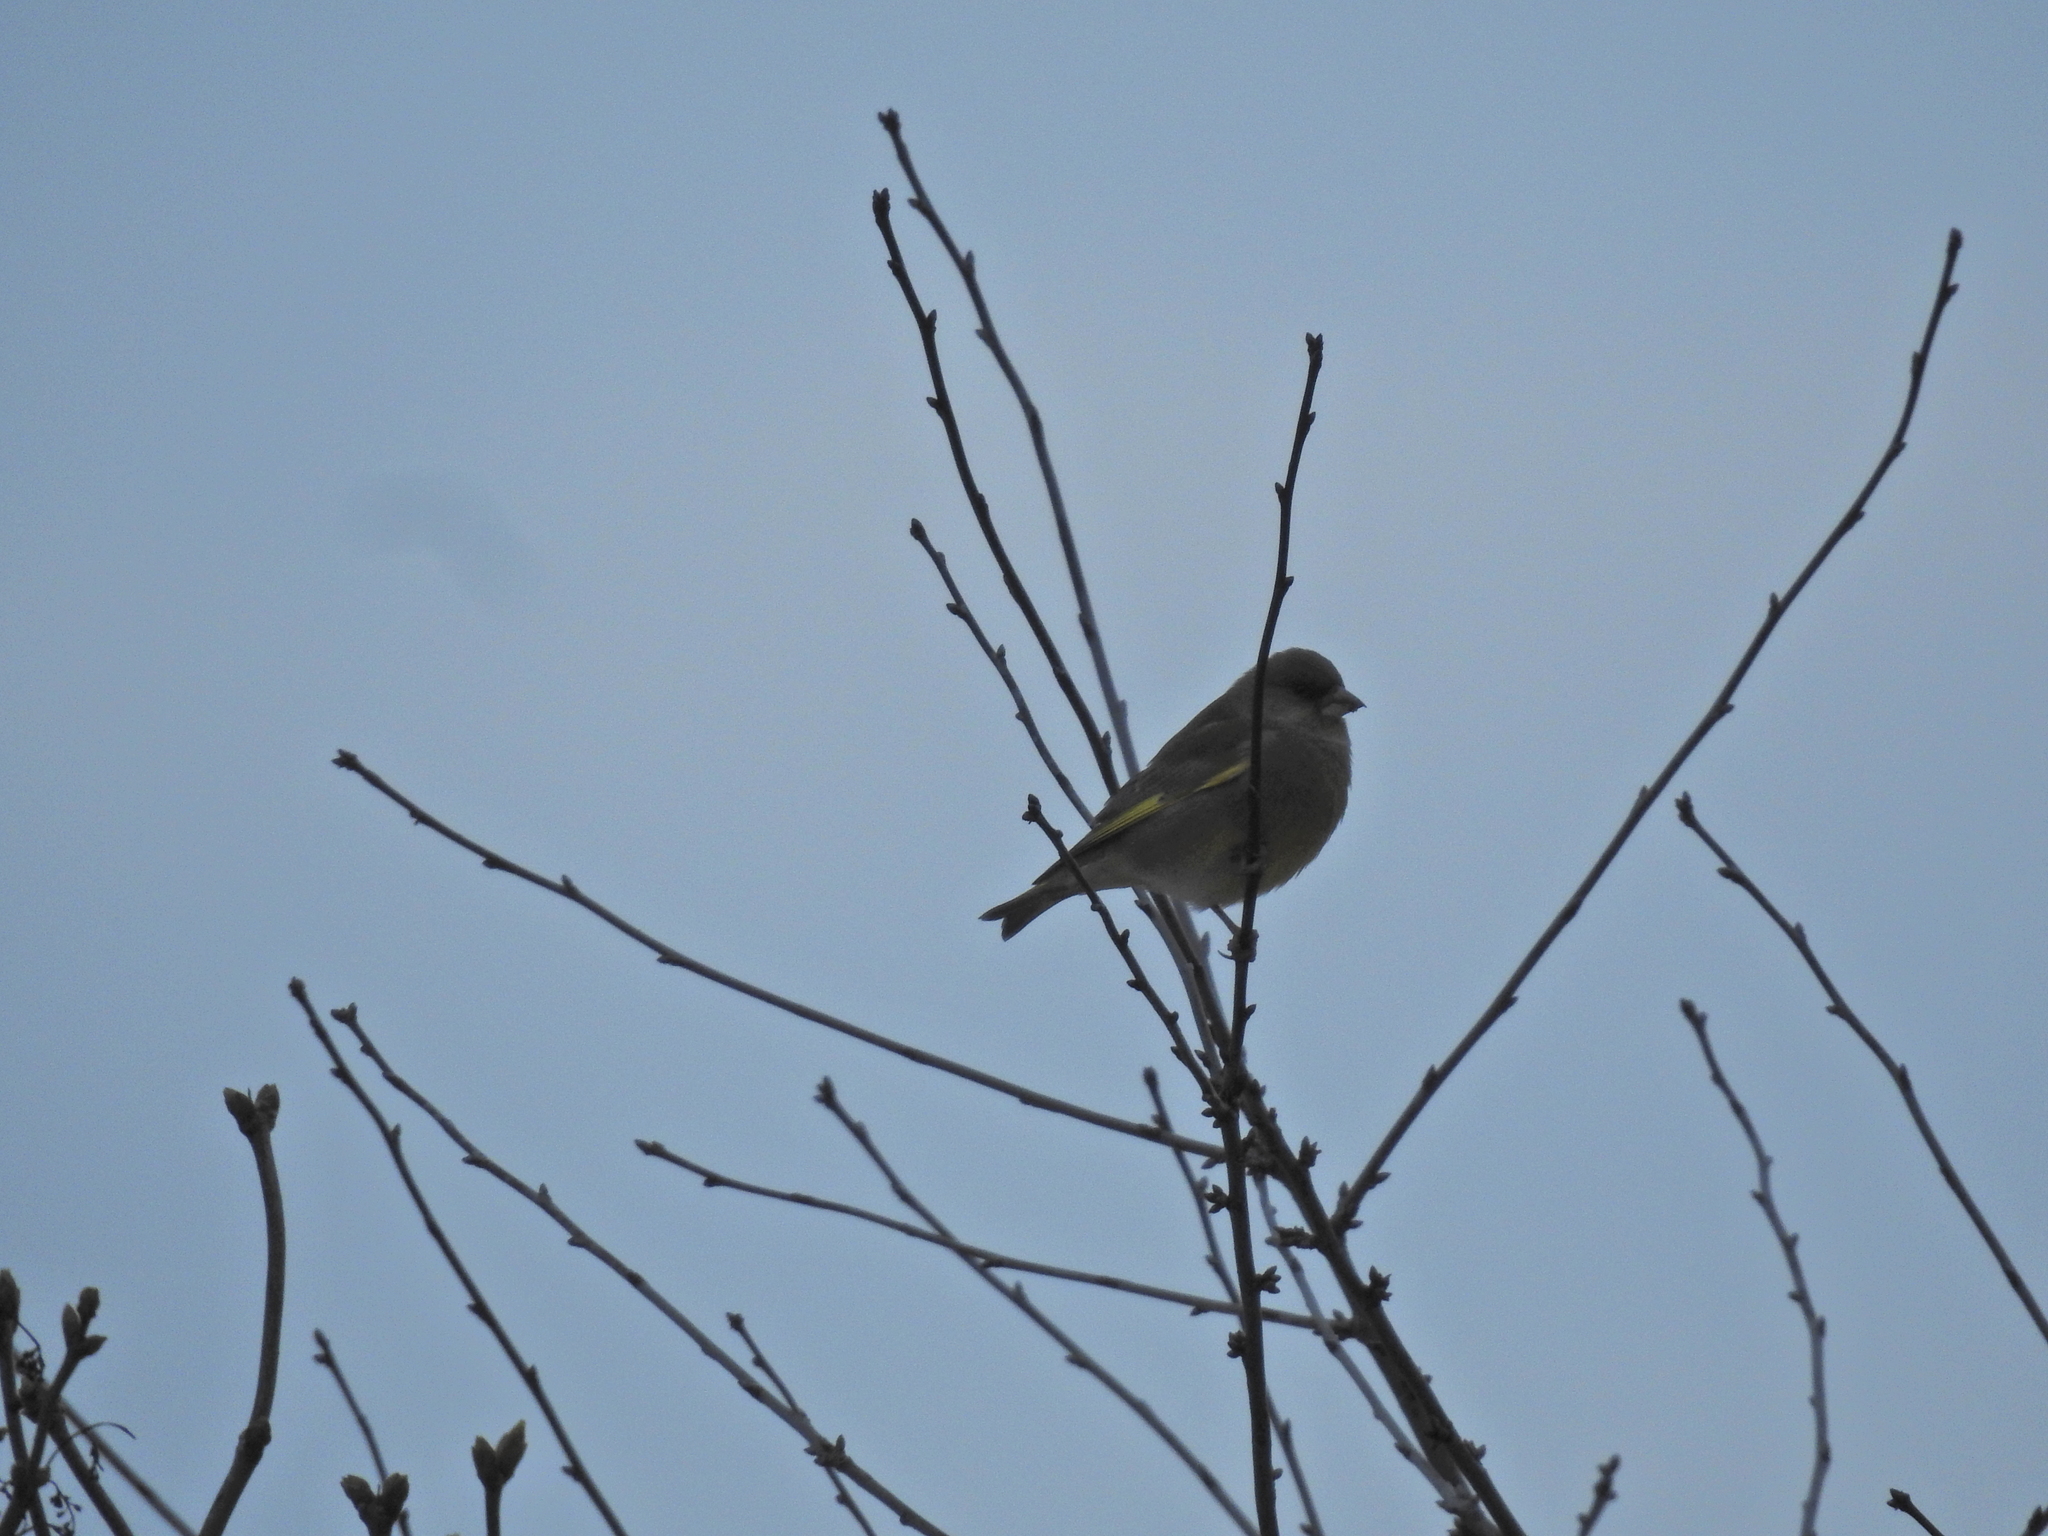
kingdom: Plantae
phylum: Tracheophyta
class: Liliopsida
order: Poales
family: Poaceae
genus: Chloris
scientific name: Chloris chloris
